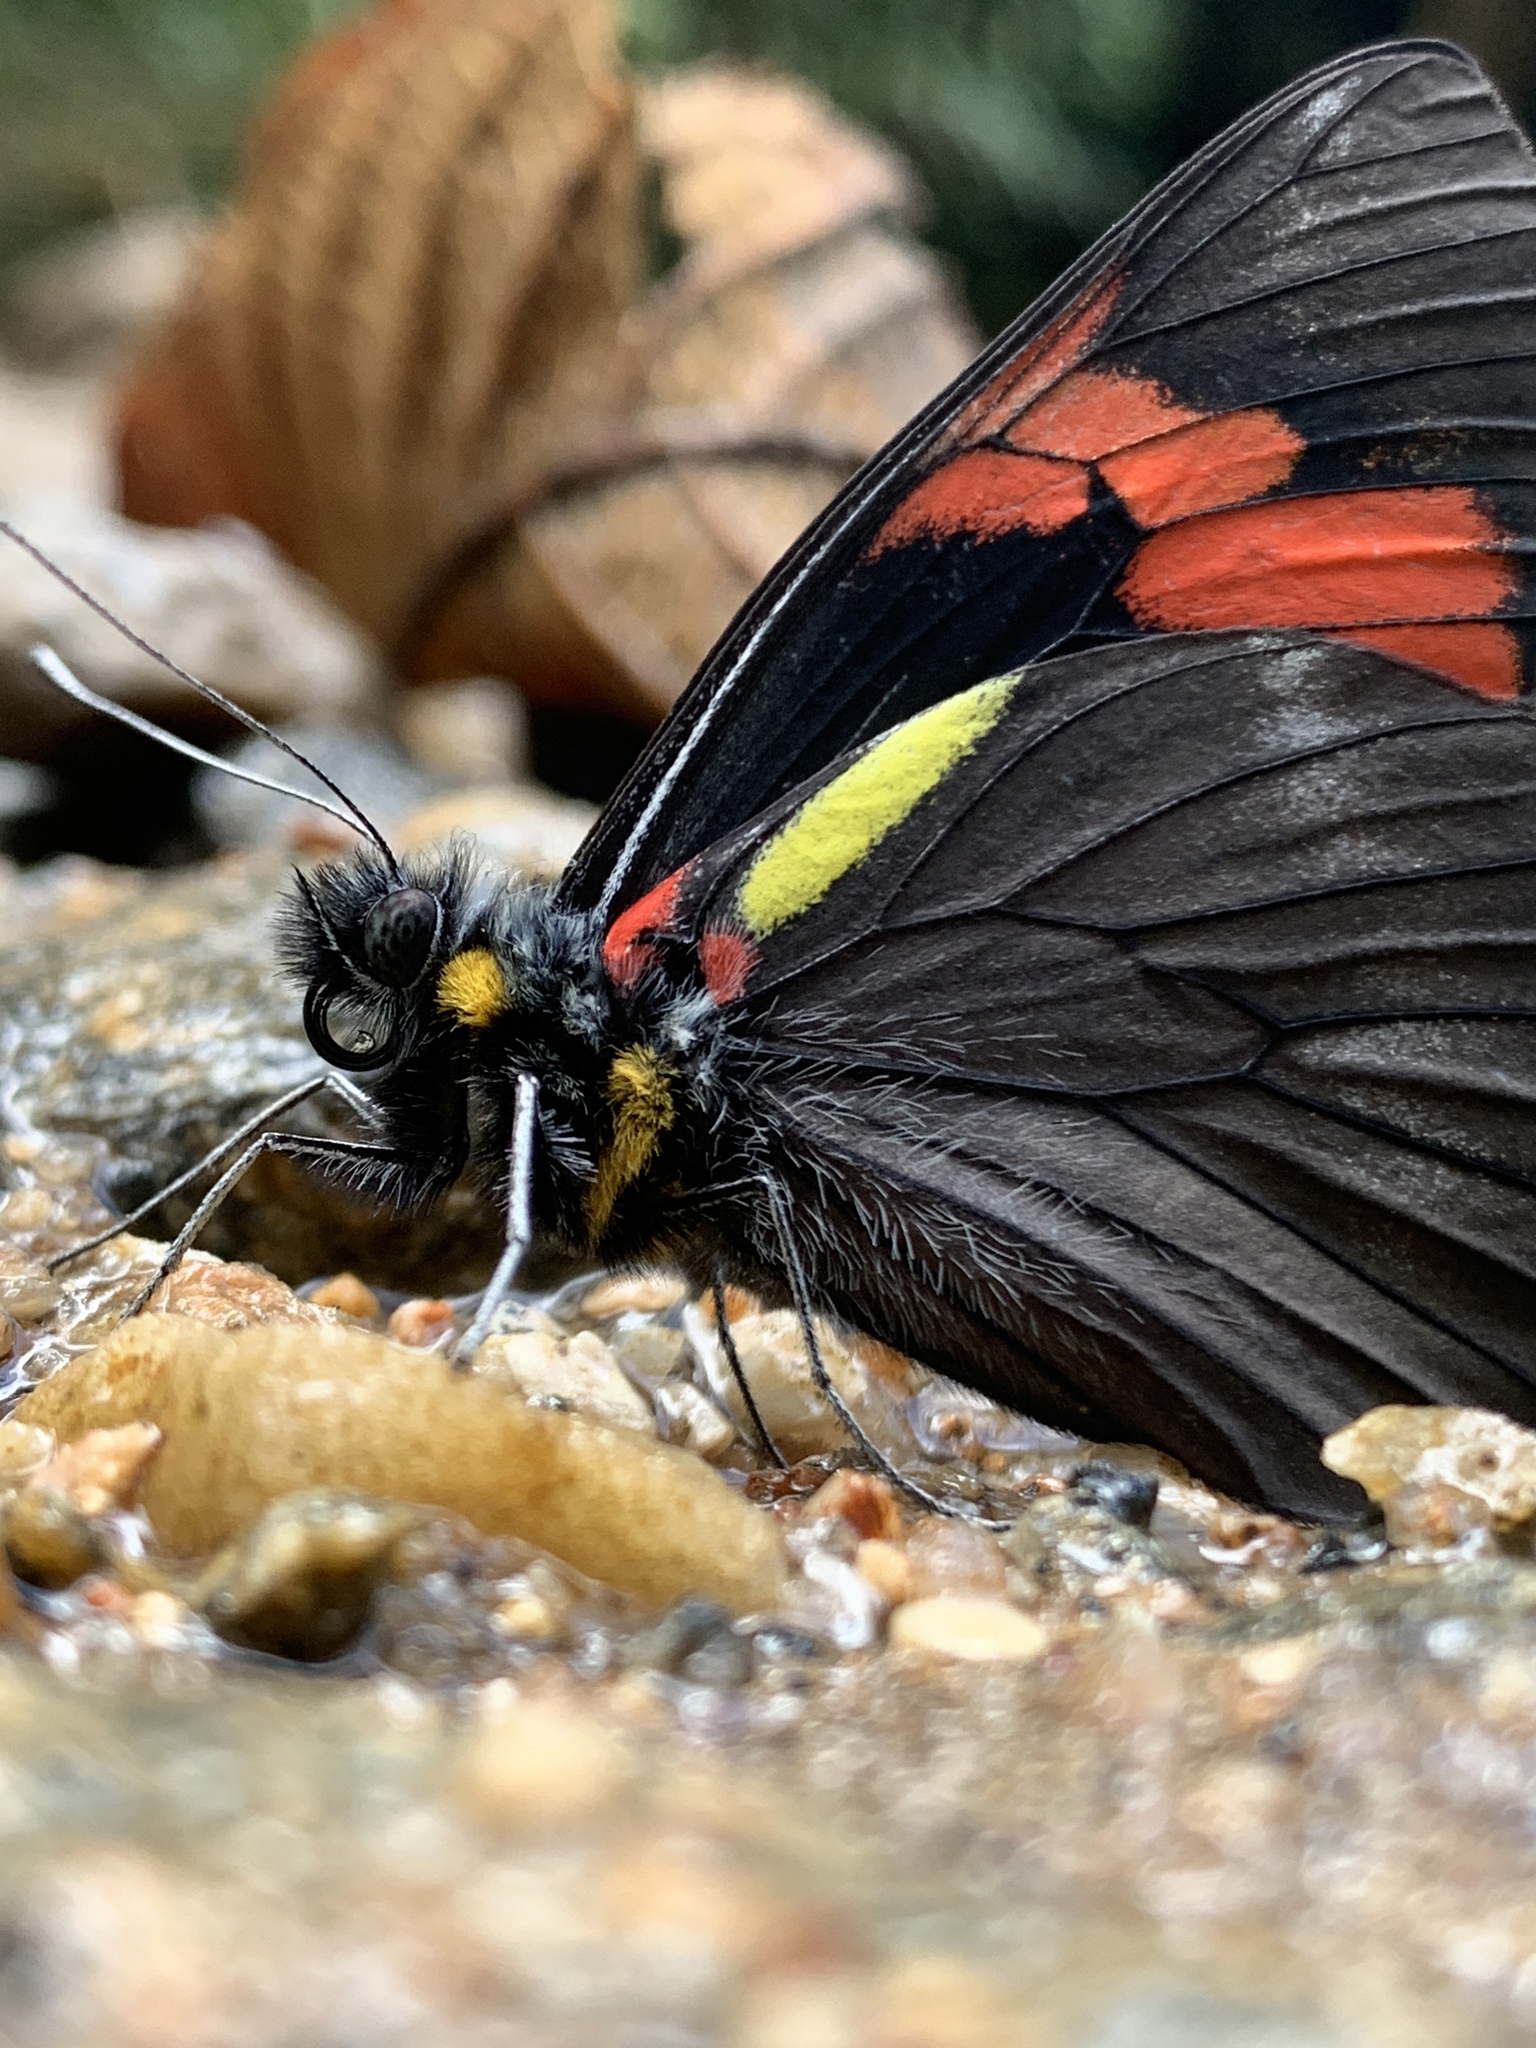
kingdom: Animalia
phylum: Arthropoda
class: Insecta
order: Lepidoptera
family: Pieridae
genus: Pereute
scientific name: Pereute swainsoni
